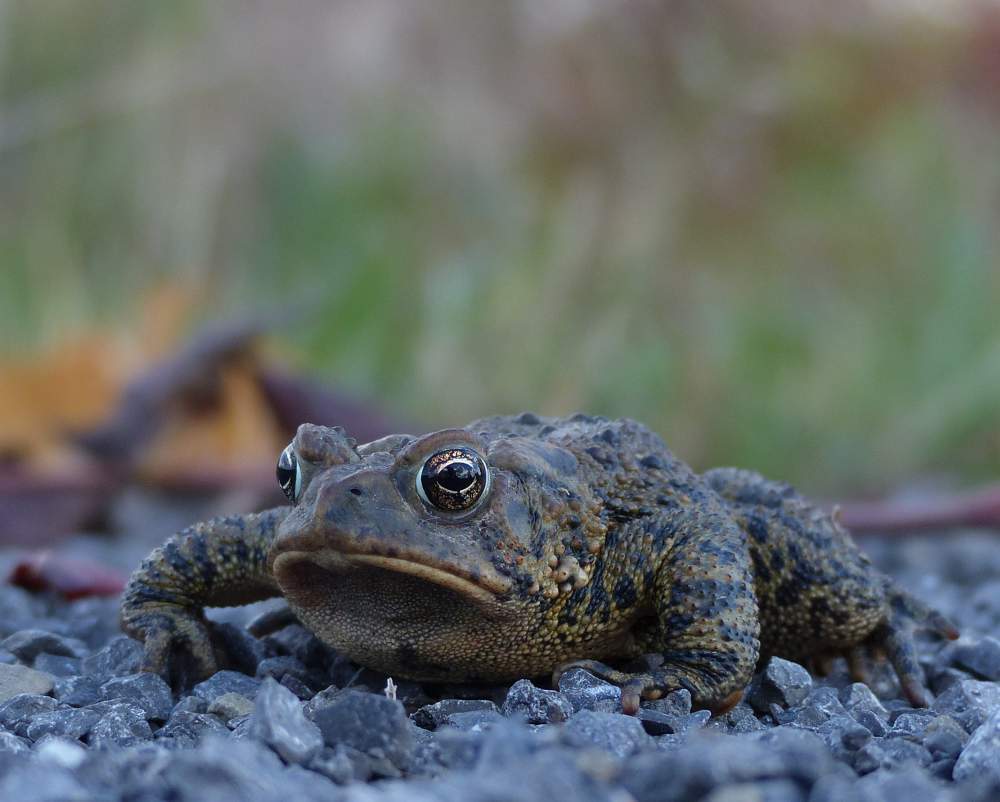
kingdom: Animalia
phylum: Chordata
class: Amphibia
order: Anura
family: Bufonidae
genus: Anaxyrus
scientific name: Anaxyrus americanus
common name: American toad
